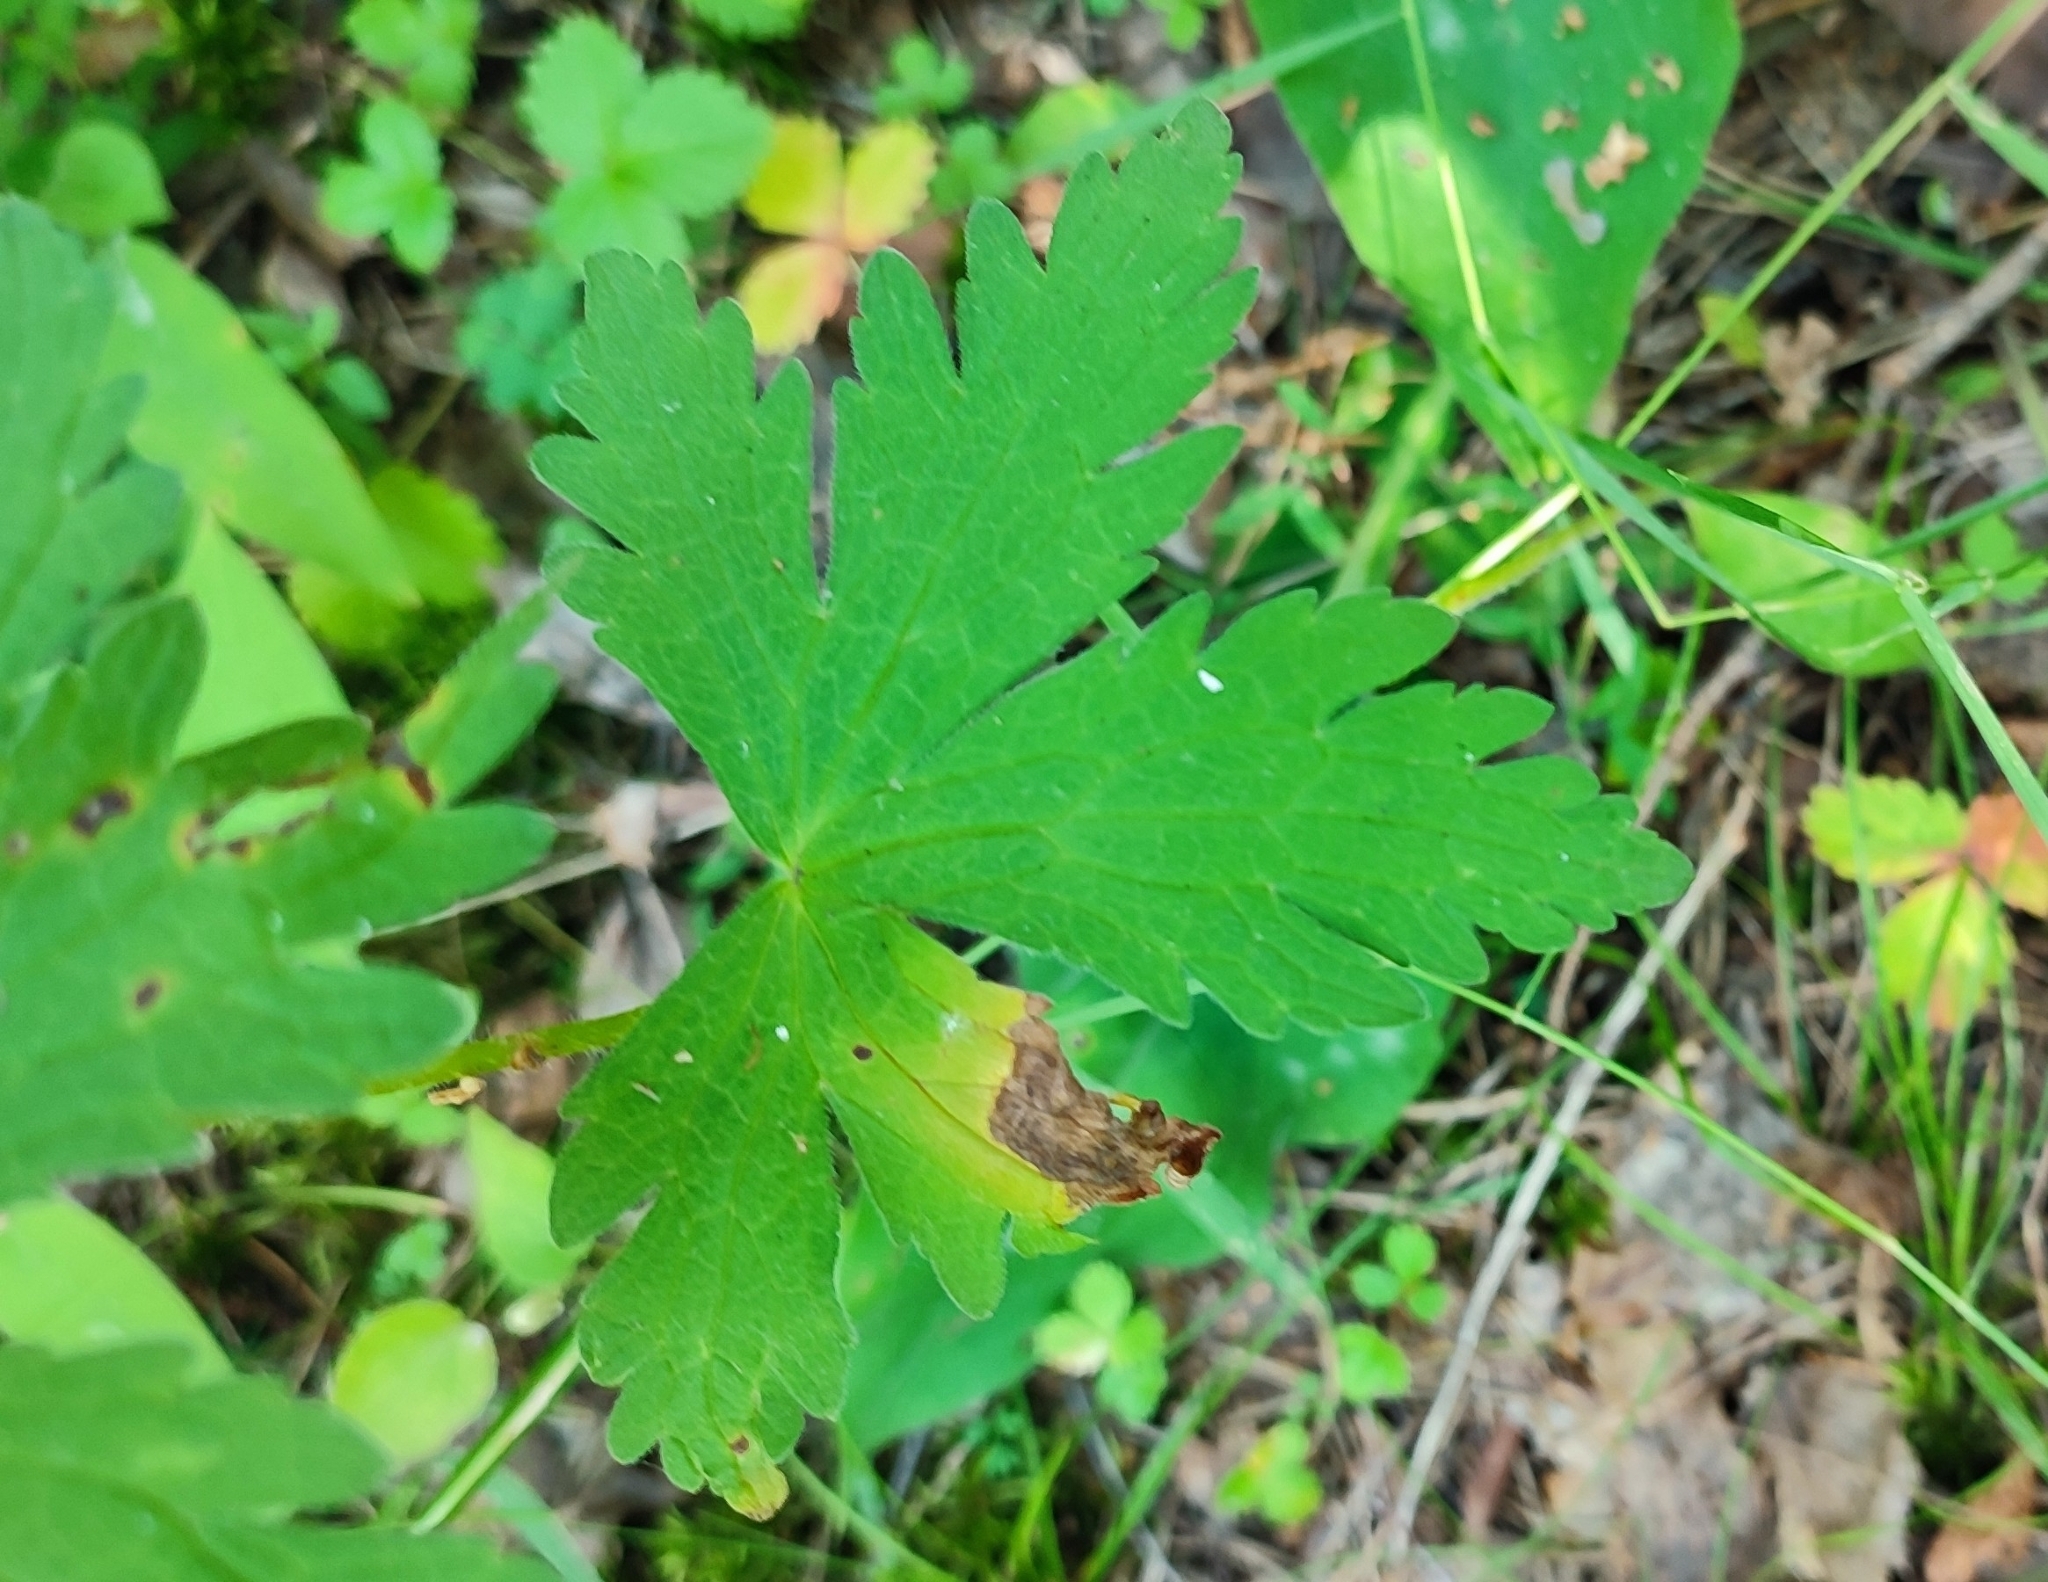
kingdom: Plantae
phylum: Tracheophyta
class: Magnoliopsida
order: Geraniales
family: Geraniaceae
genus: Geranium
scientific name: Geranium sylvaticum
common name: Wood crane's-bill
